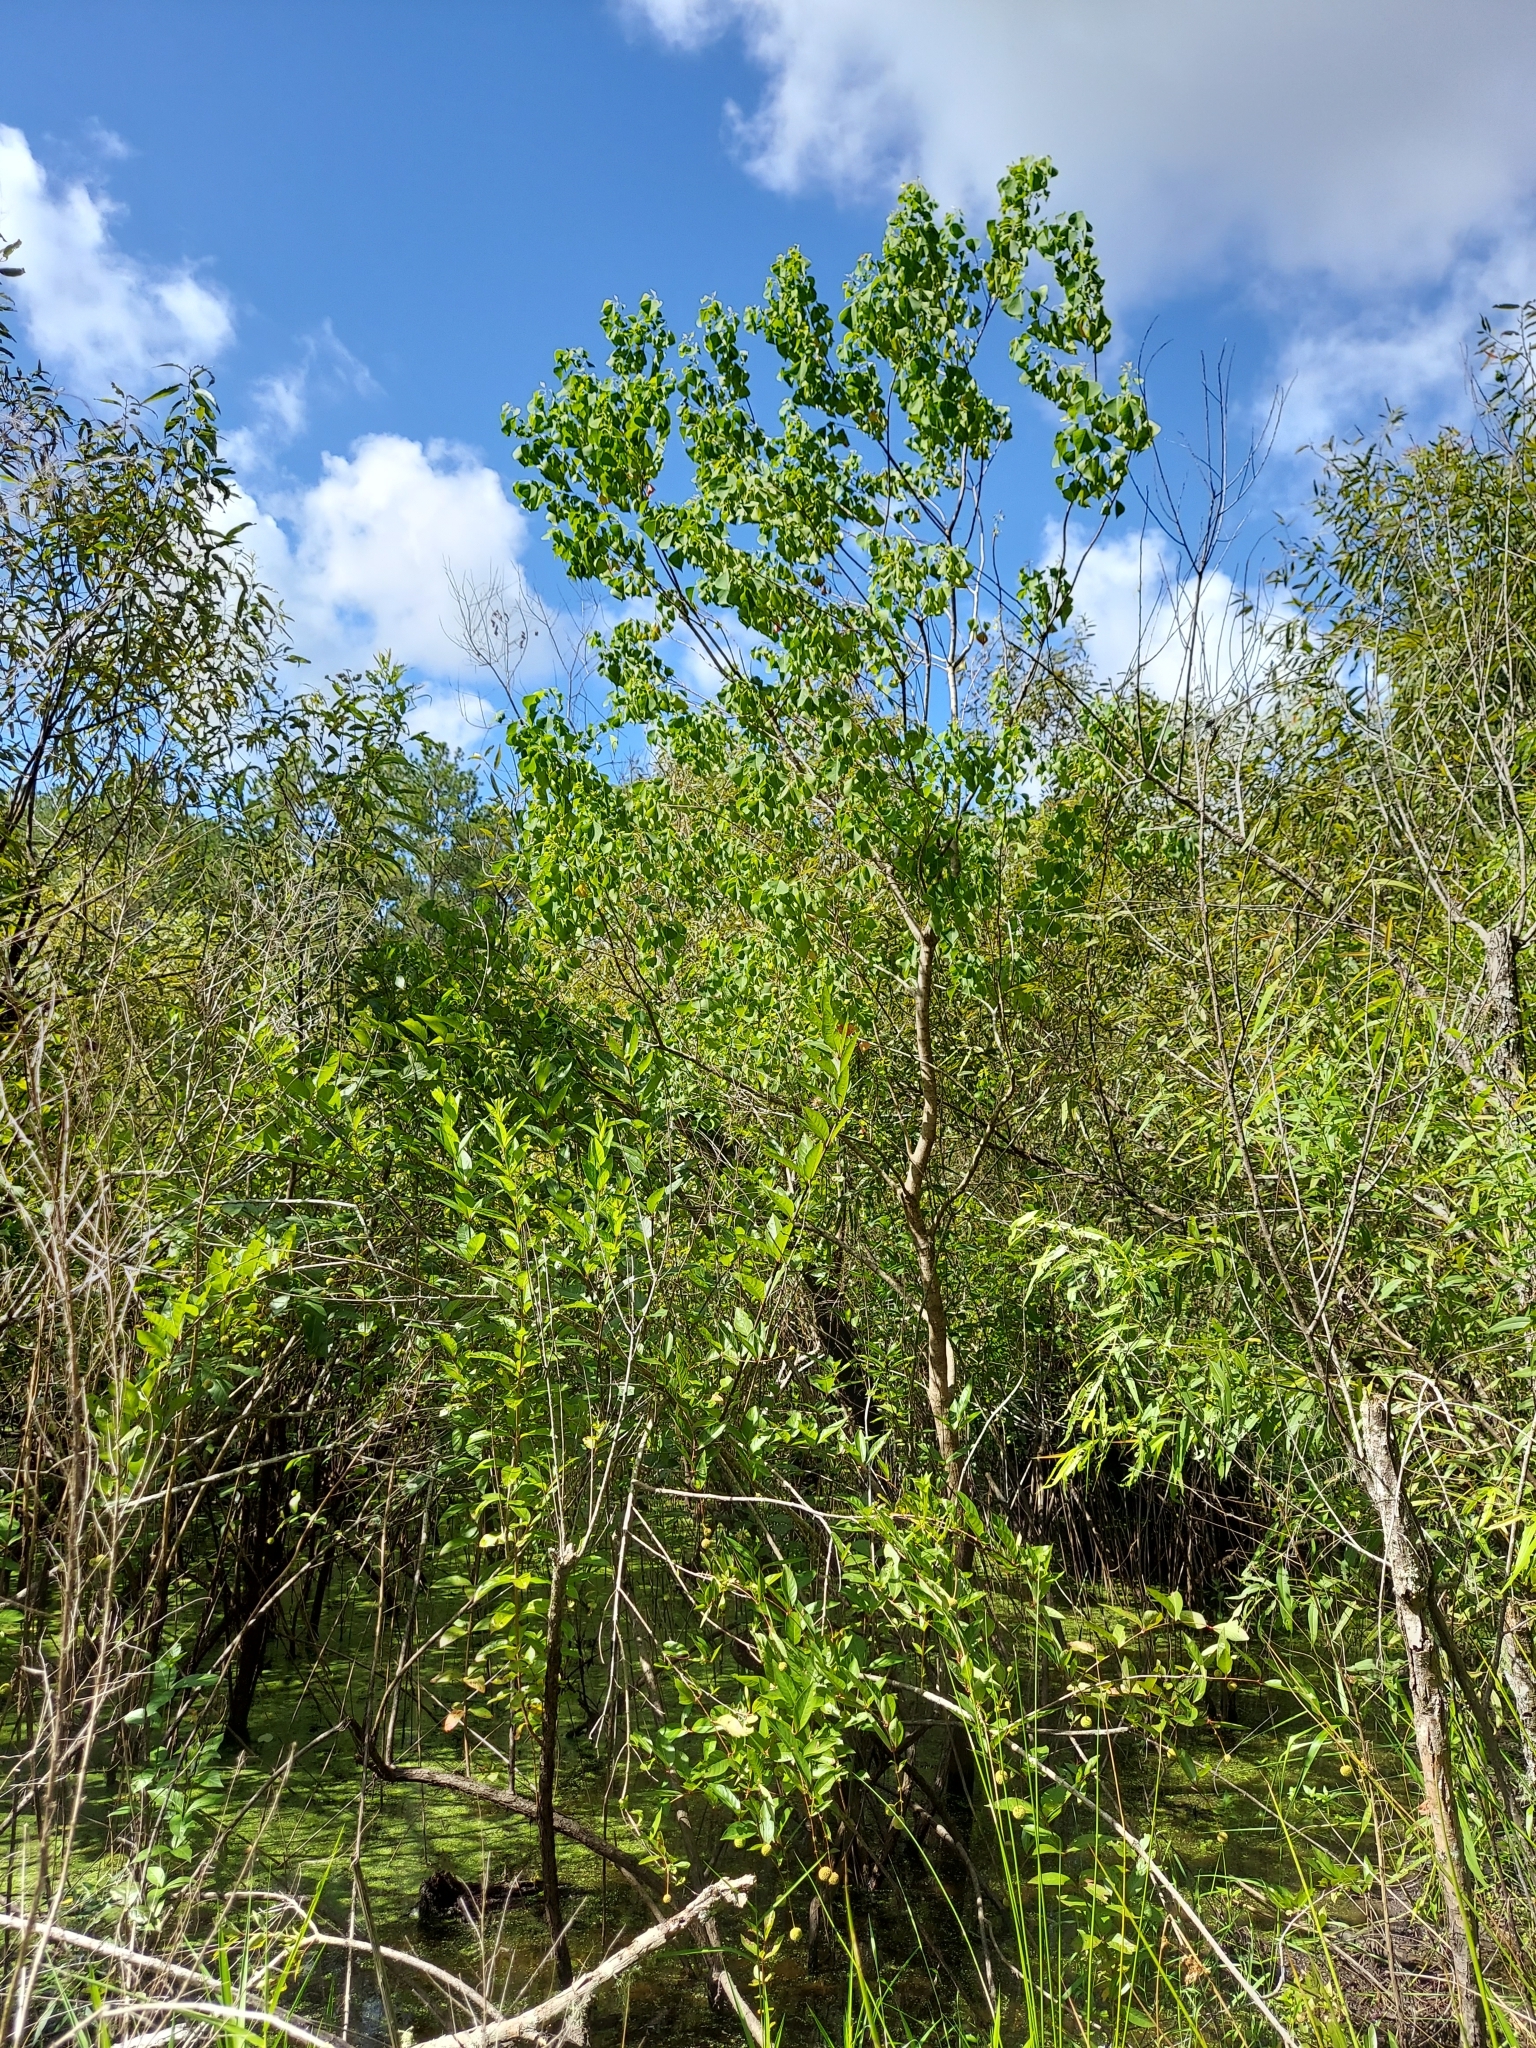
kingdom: Plantae
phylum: Tracheophyta
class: Magnoliopsida
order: Malpighiales
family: Euphorbiaceae
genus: Triadica
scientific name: Triadica sebifera
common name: Chinese tallow
